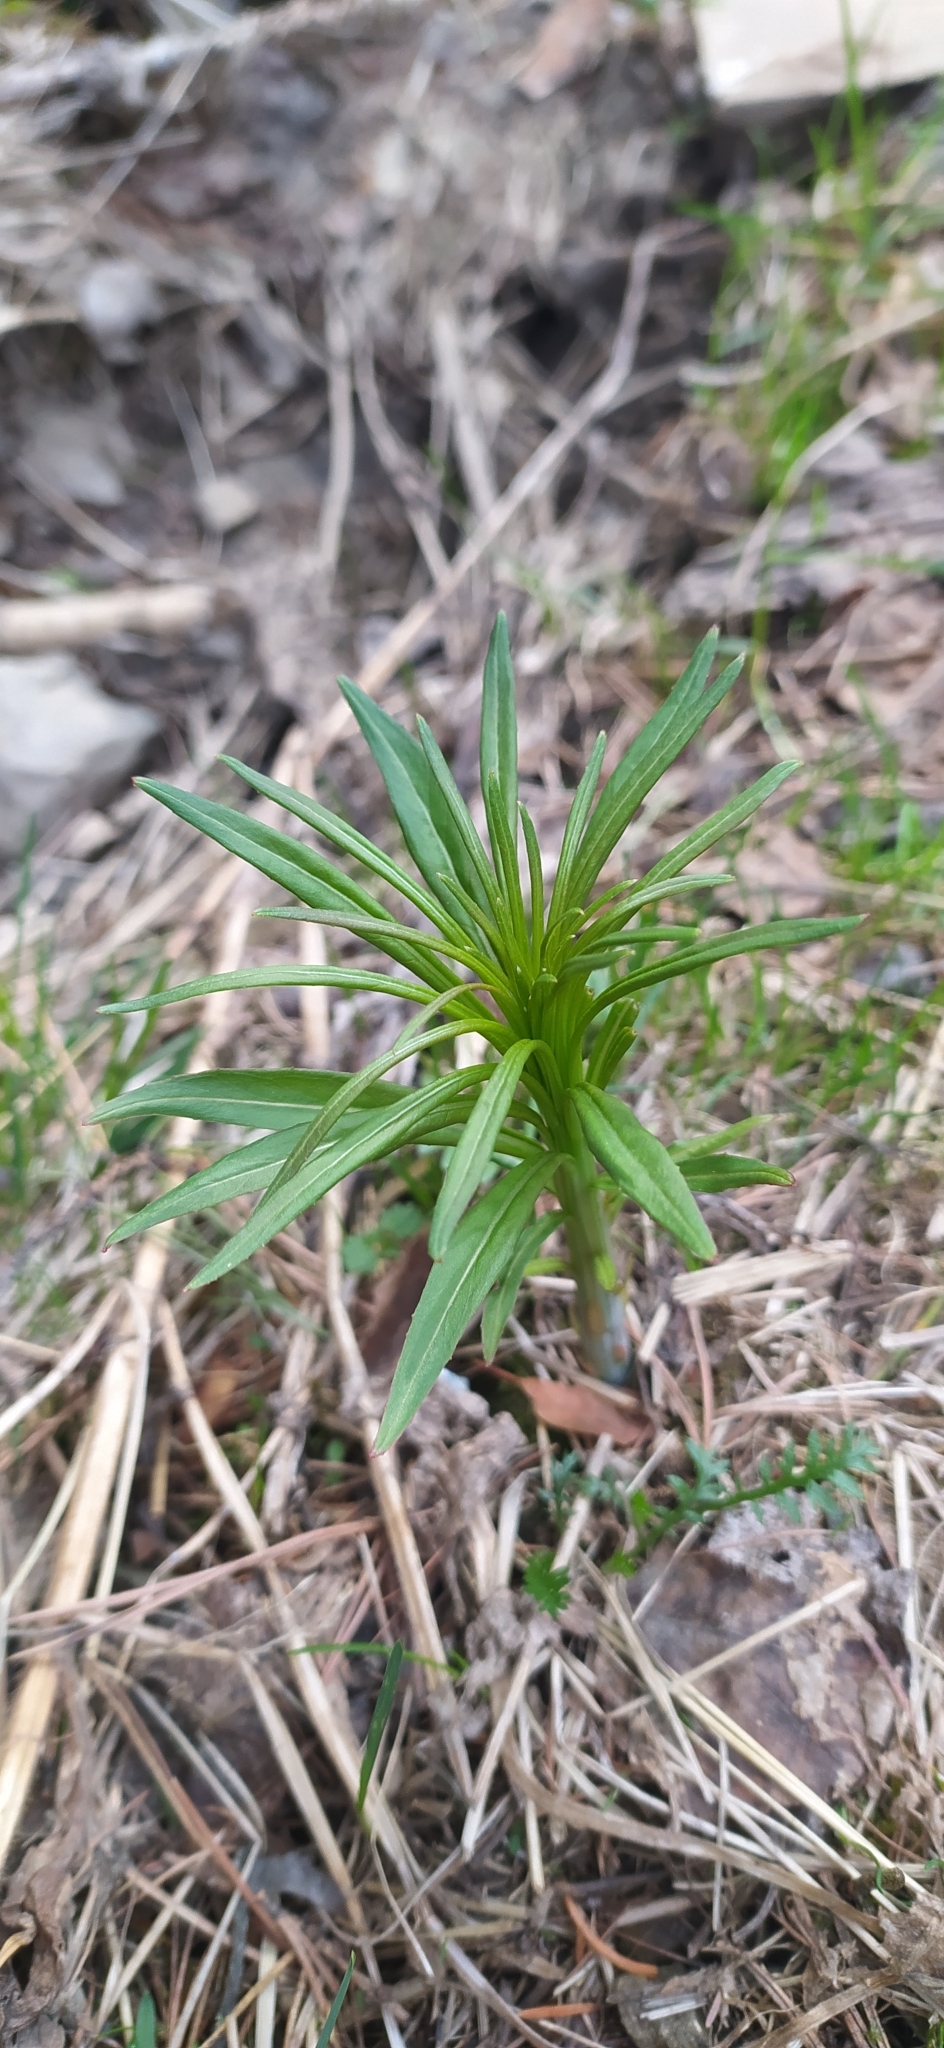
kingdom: Plantae
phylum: Tracheophyta
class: Magnoliopsida
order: Myrtales
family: Onagraceae
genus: Chamaenerion
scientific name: Chamaenerion angustifolium
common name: Fireweed
